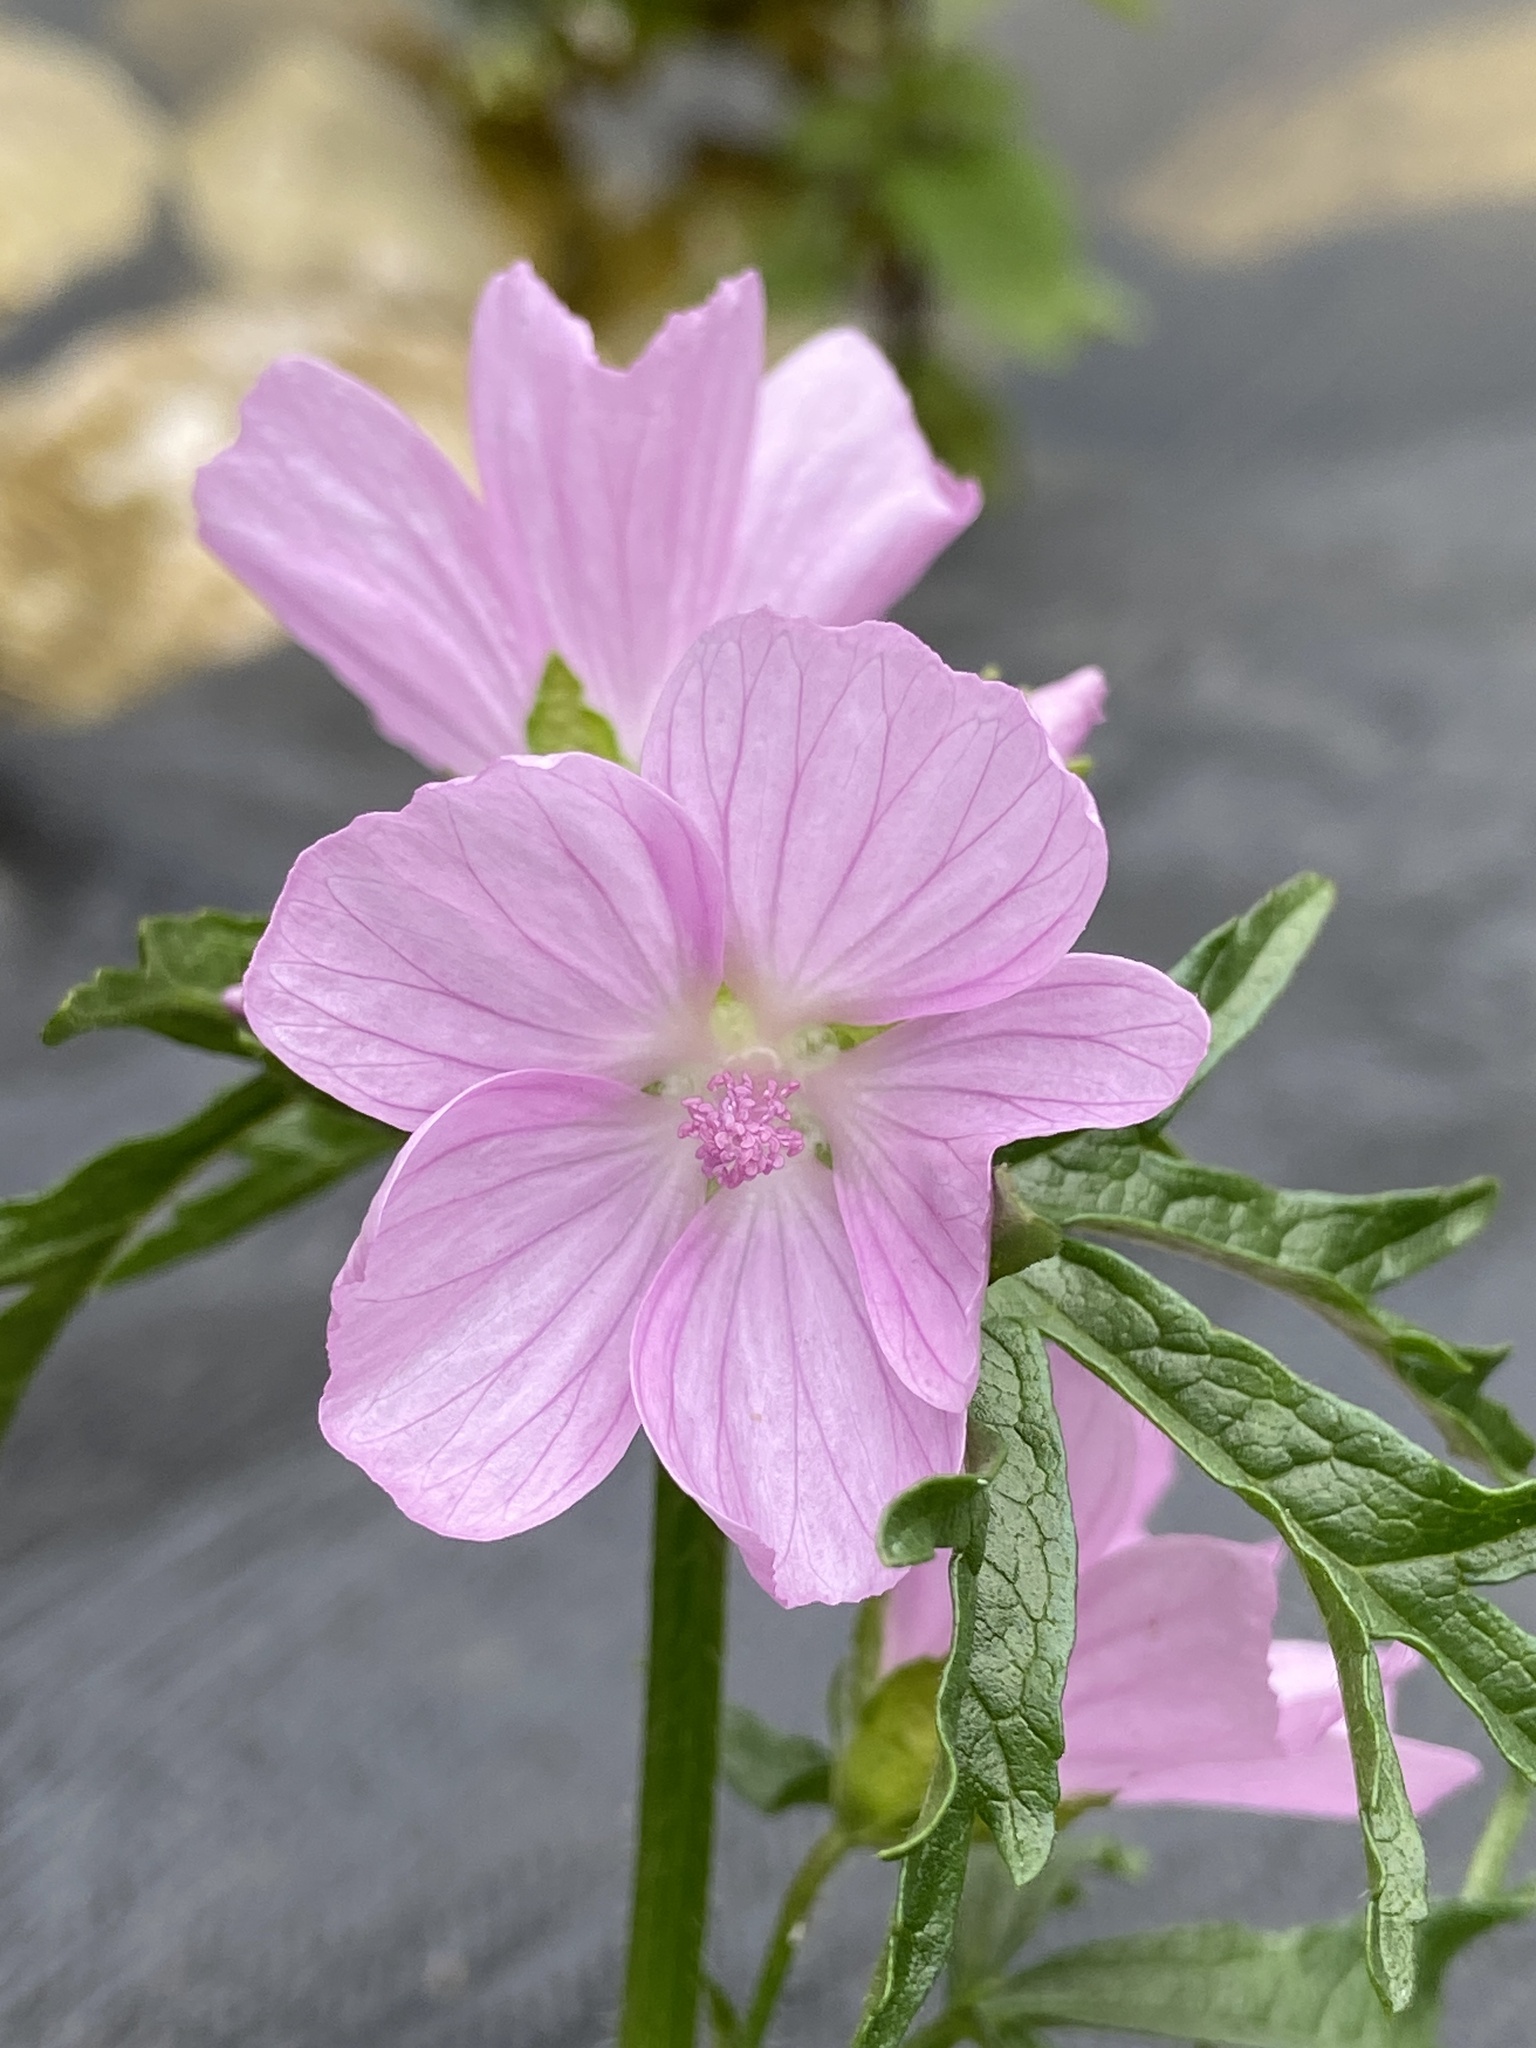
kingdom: Plantae
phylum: Tracheophyta
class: Magnoliopsida
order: Malvales
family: Malvaceae
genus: Malva
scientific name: Malva moschata
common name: Musk mallow
